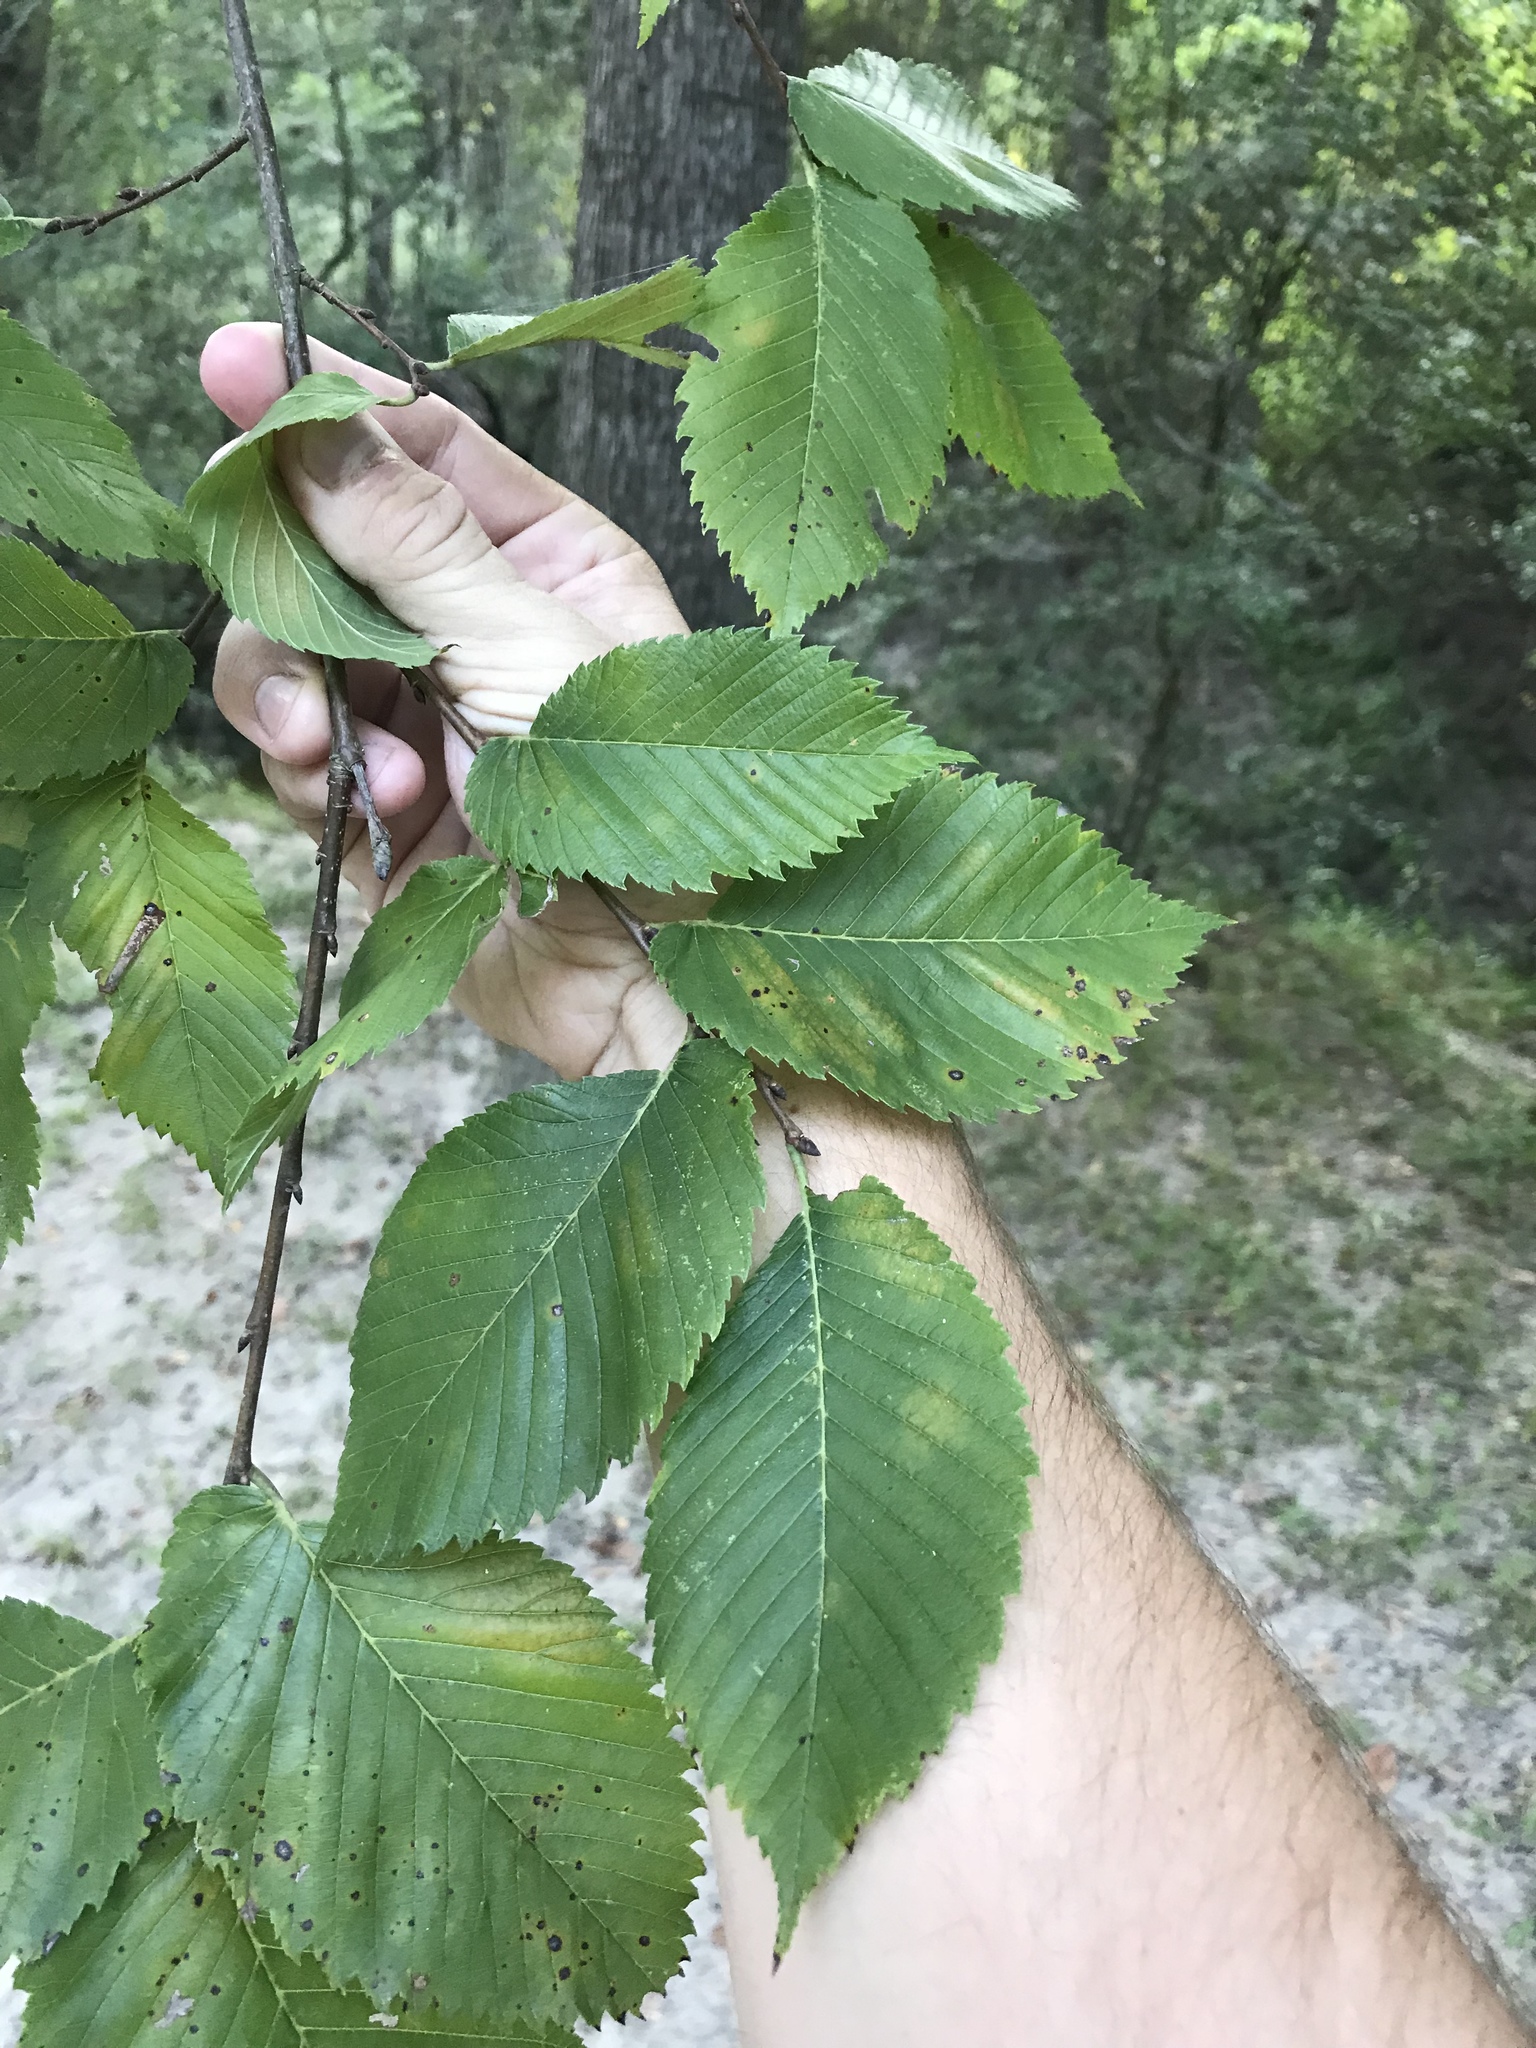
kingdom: Plantae
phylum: Tracheophyta
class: Magnoliopsida
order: Rosales
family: Ulmaceae
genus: Ulmus
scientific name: Ulmus americana
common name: American elm
